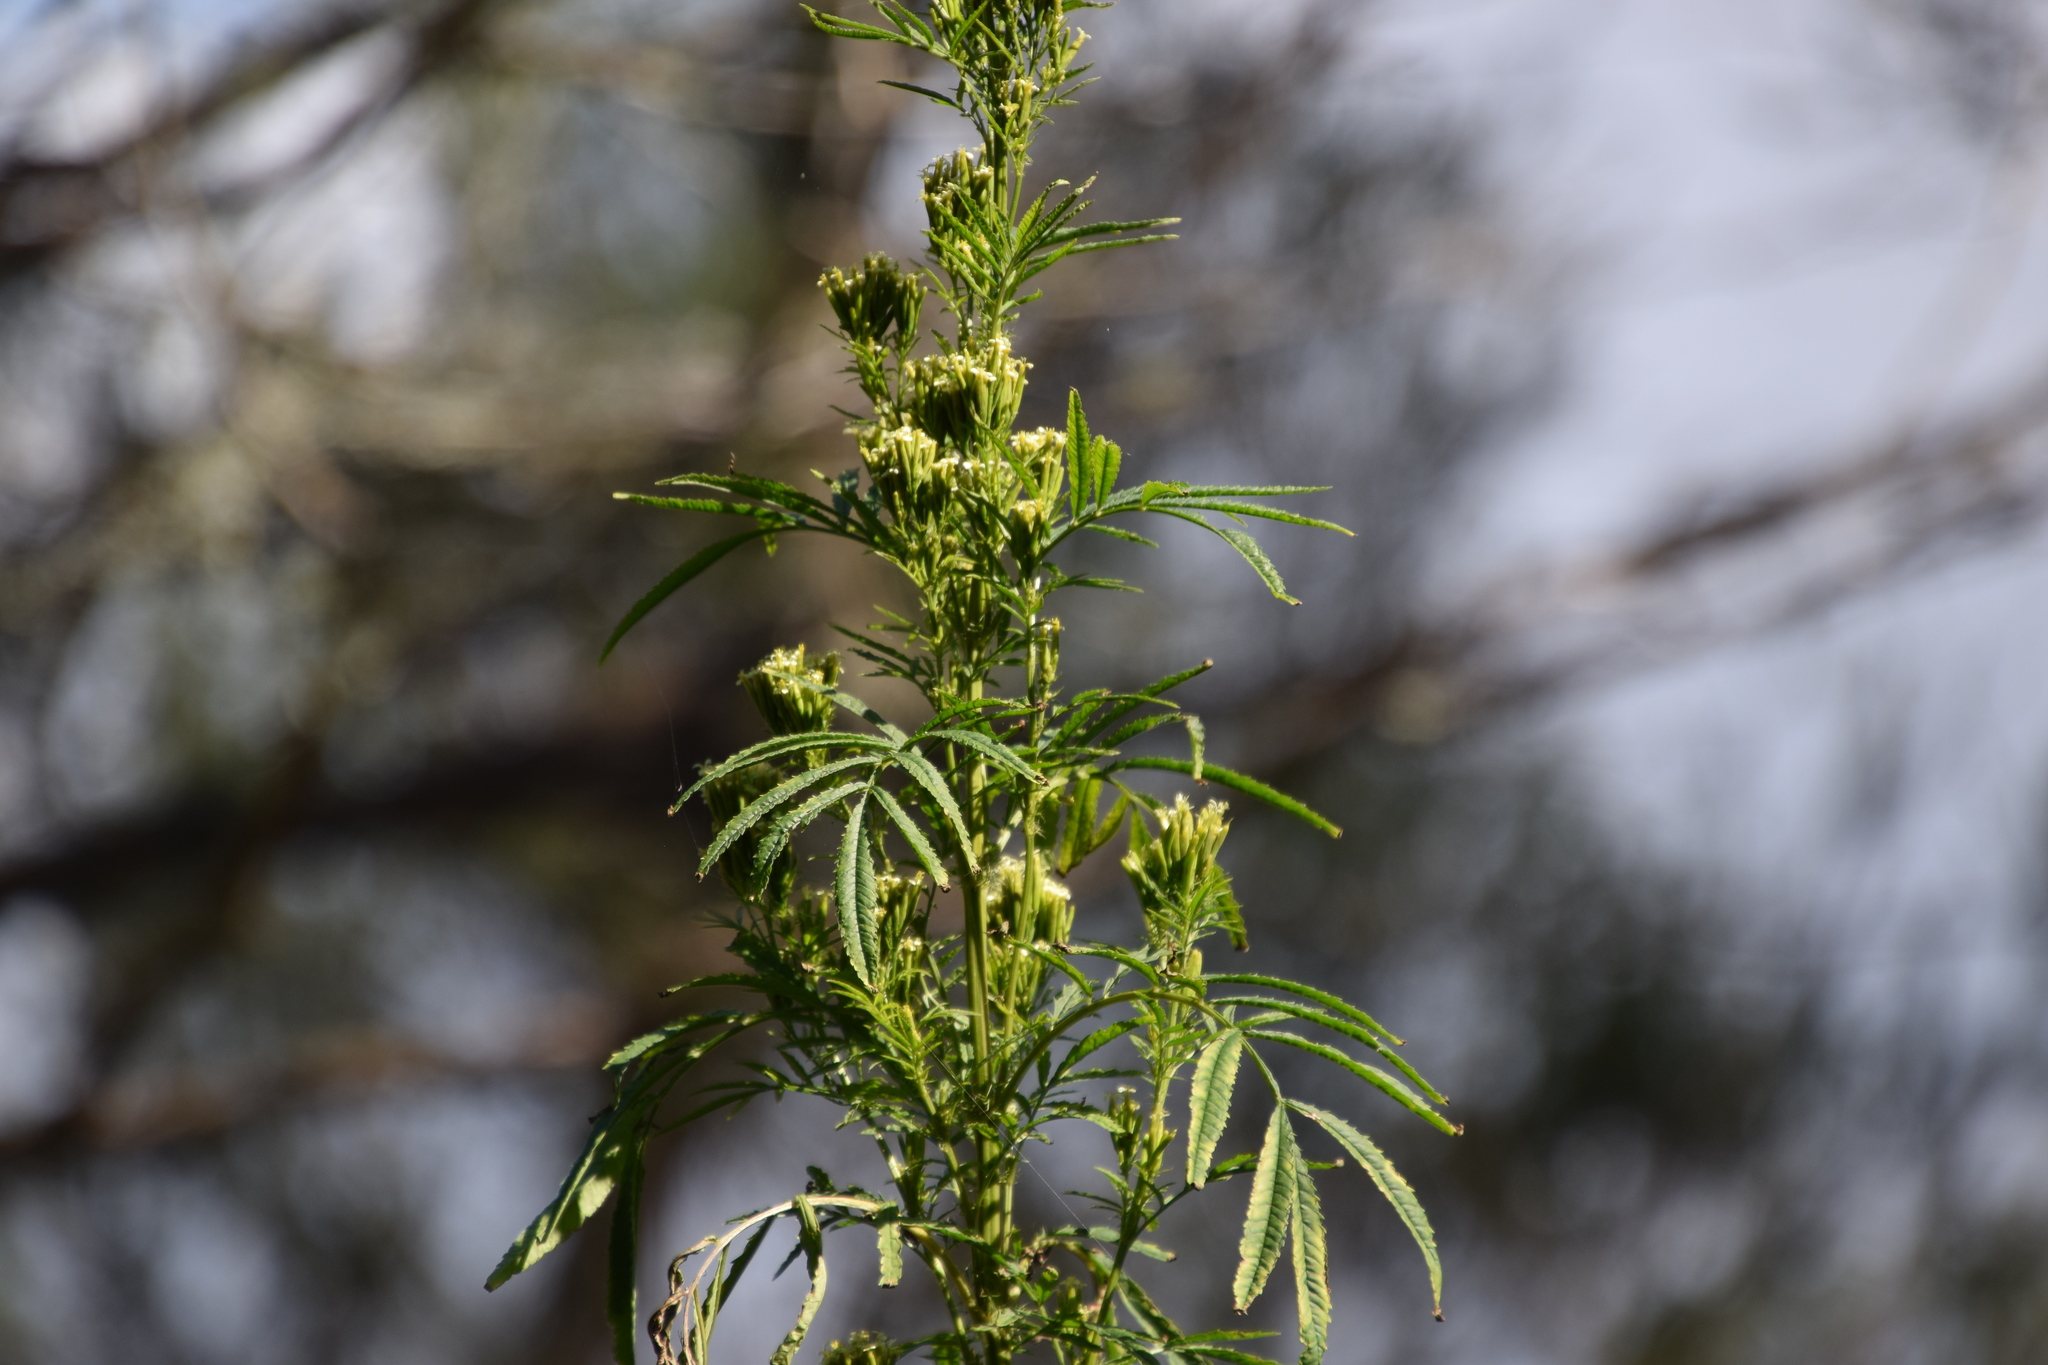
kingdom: Plantae
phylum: Tracheophyta
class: Magnoliopsida
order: Asterales
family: Asteraceae
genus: Tagetes
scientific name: Tagetes minuta
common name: Muster john henry
